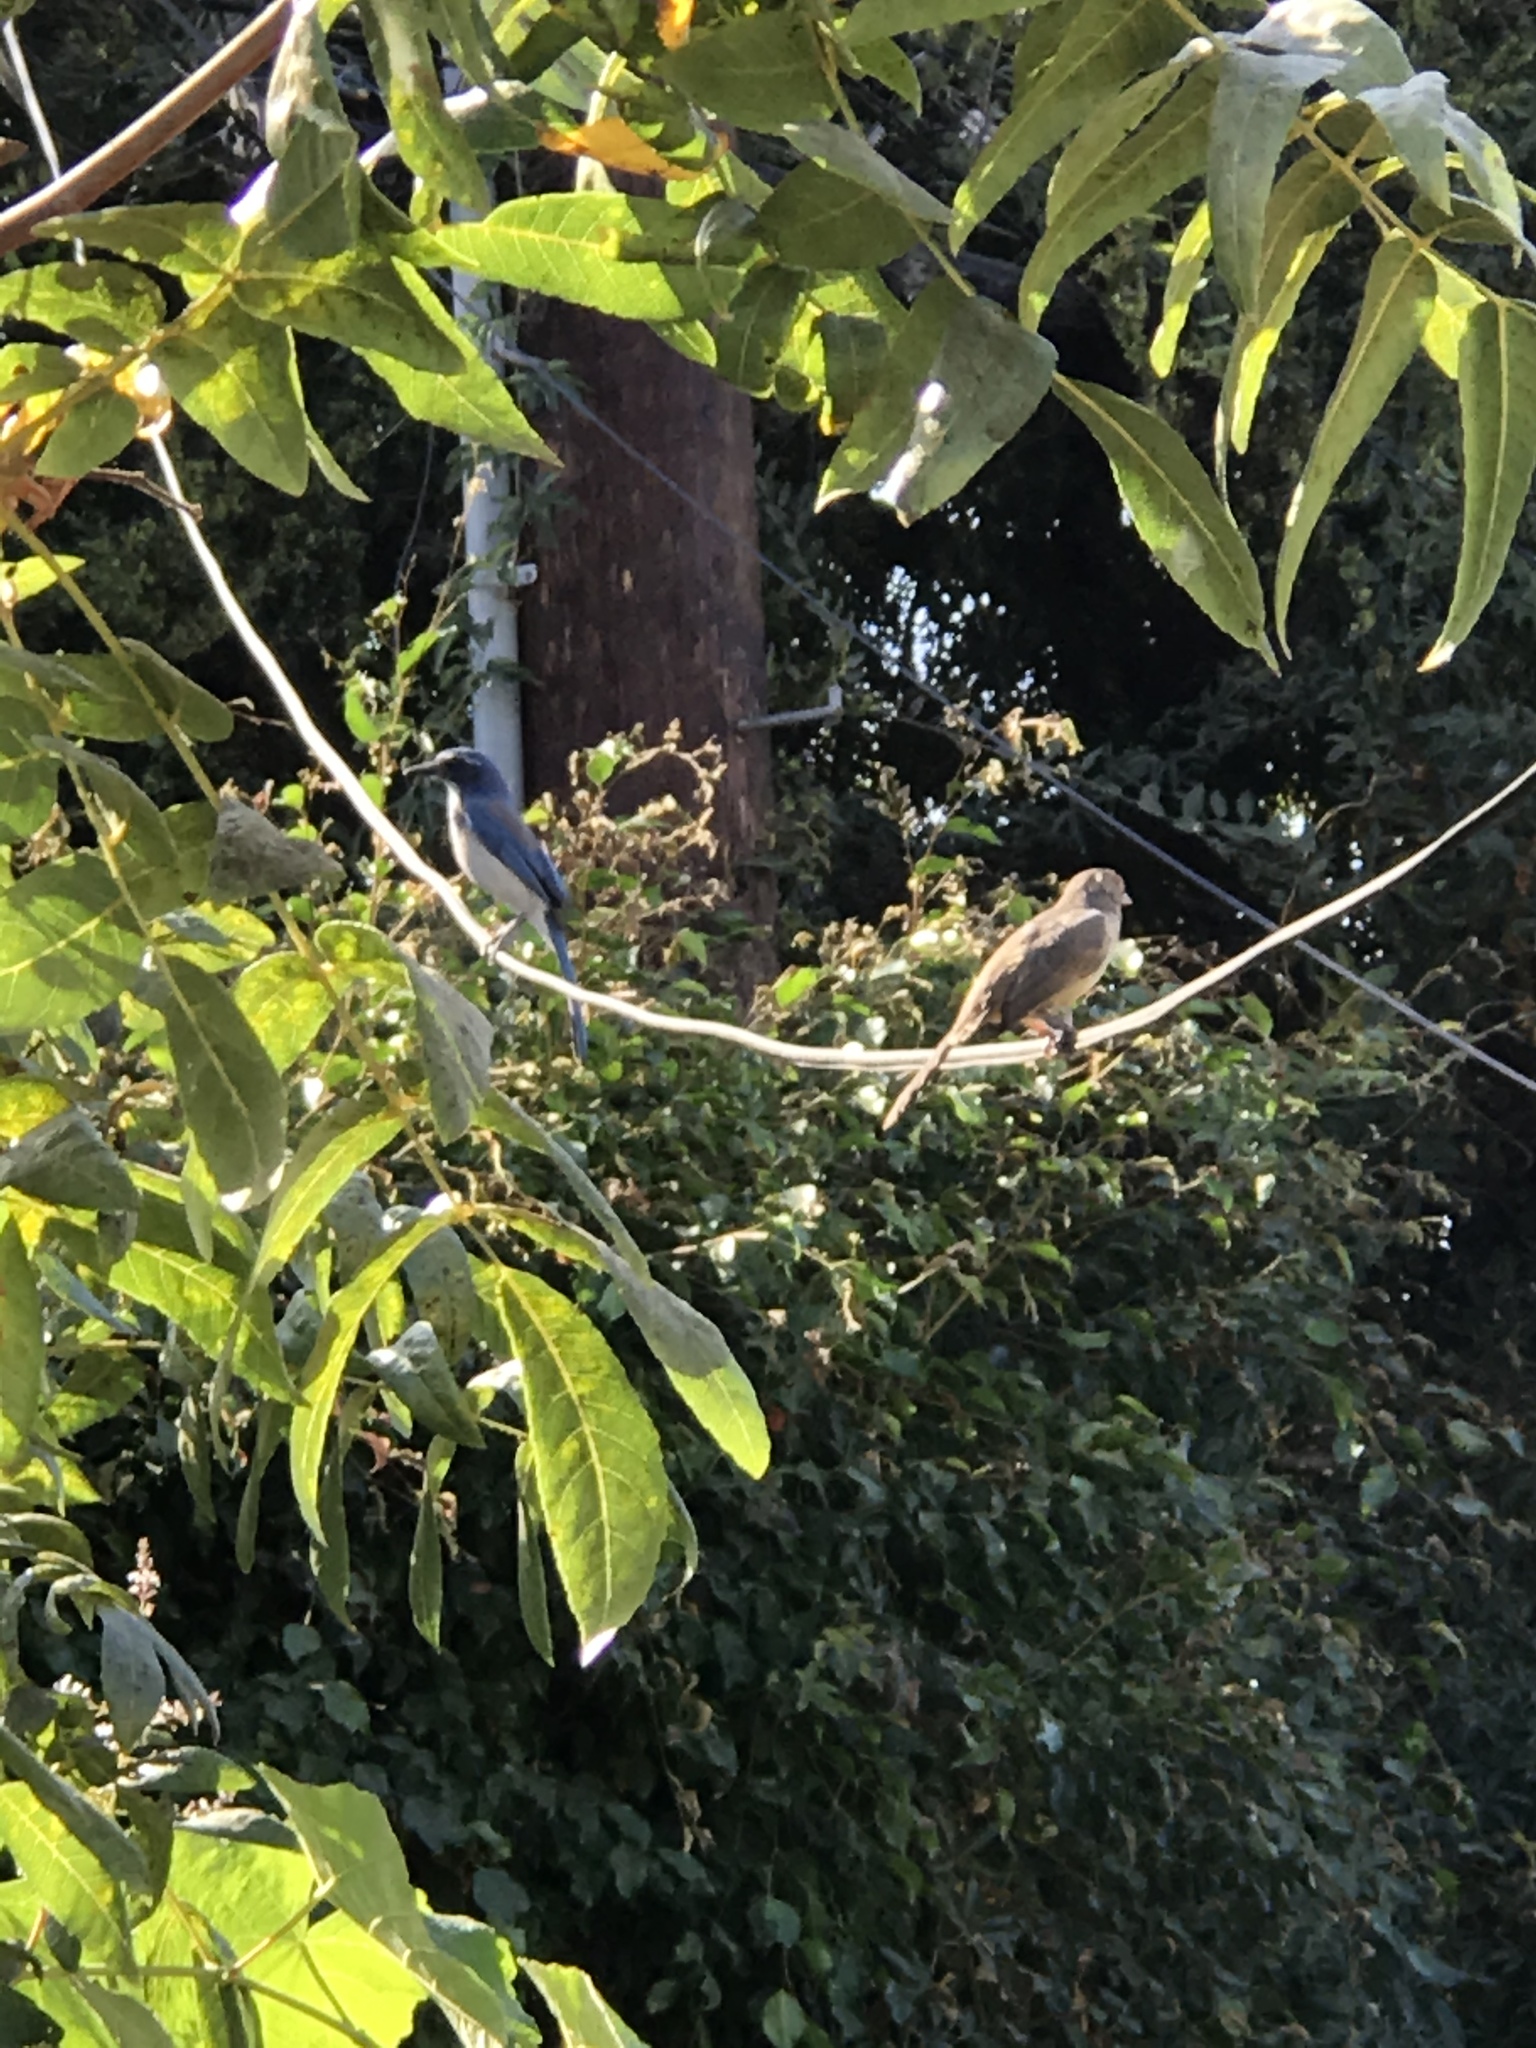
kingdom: Animalia
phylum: Chordata
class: Aves
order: Passeriformes
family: Corvidae
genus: Aphelocoma
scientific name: Aphelocoma californica
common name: California scrub-jay
